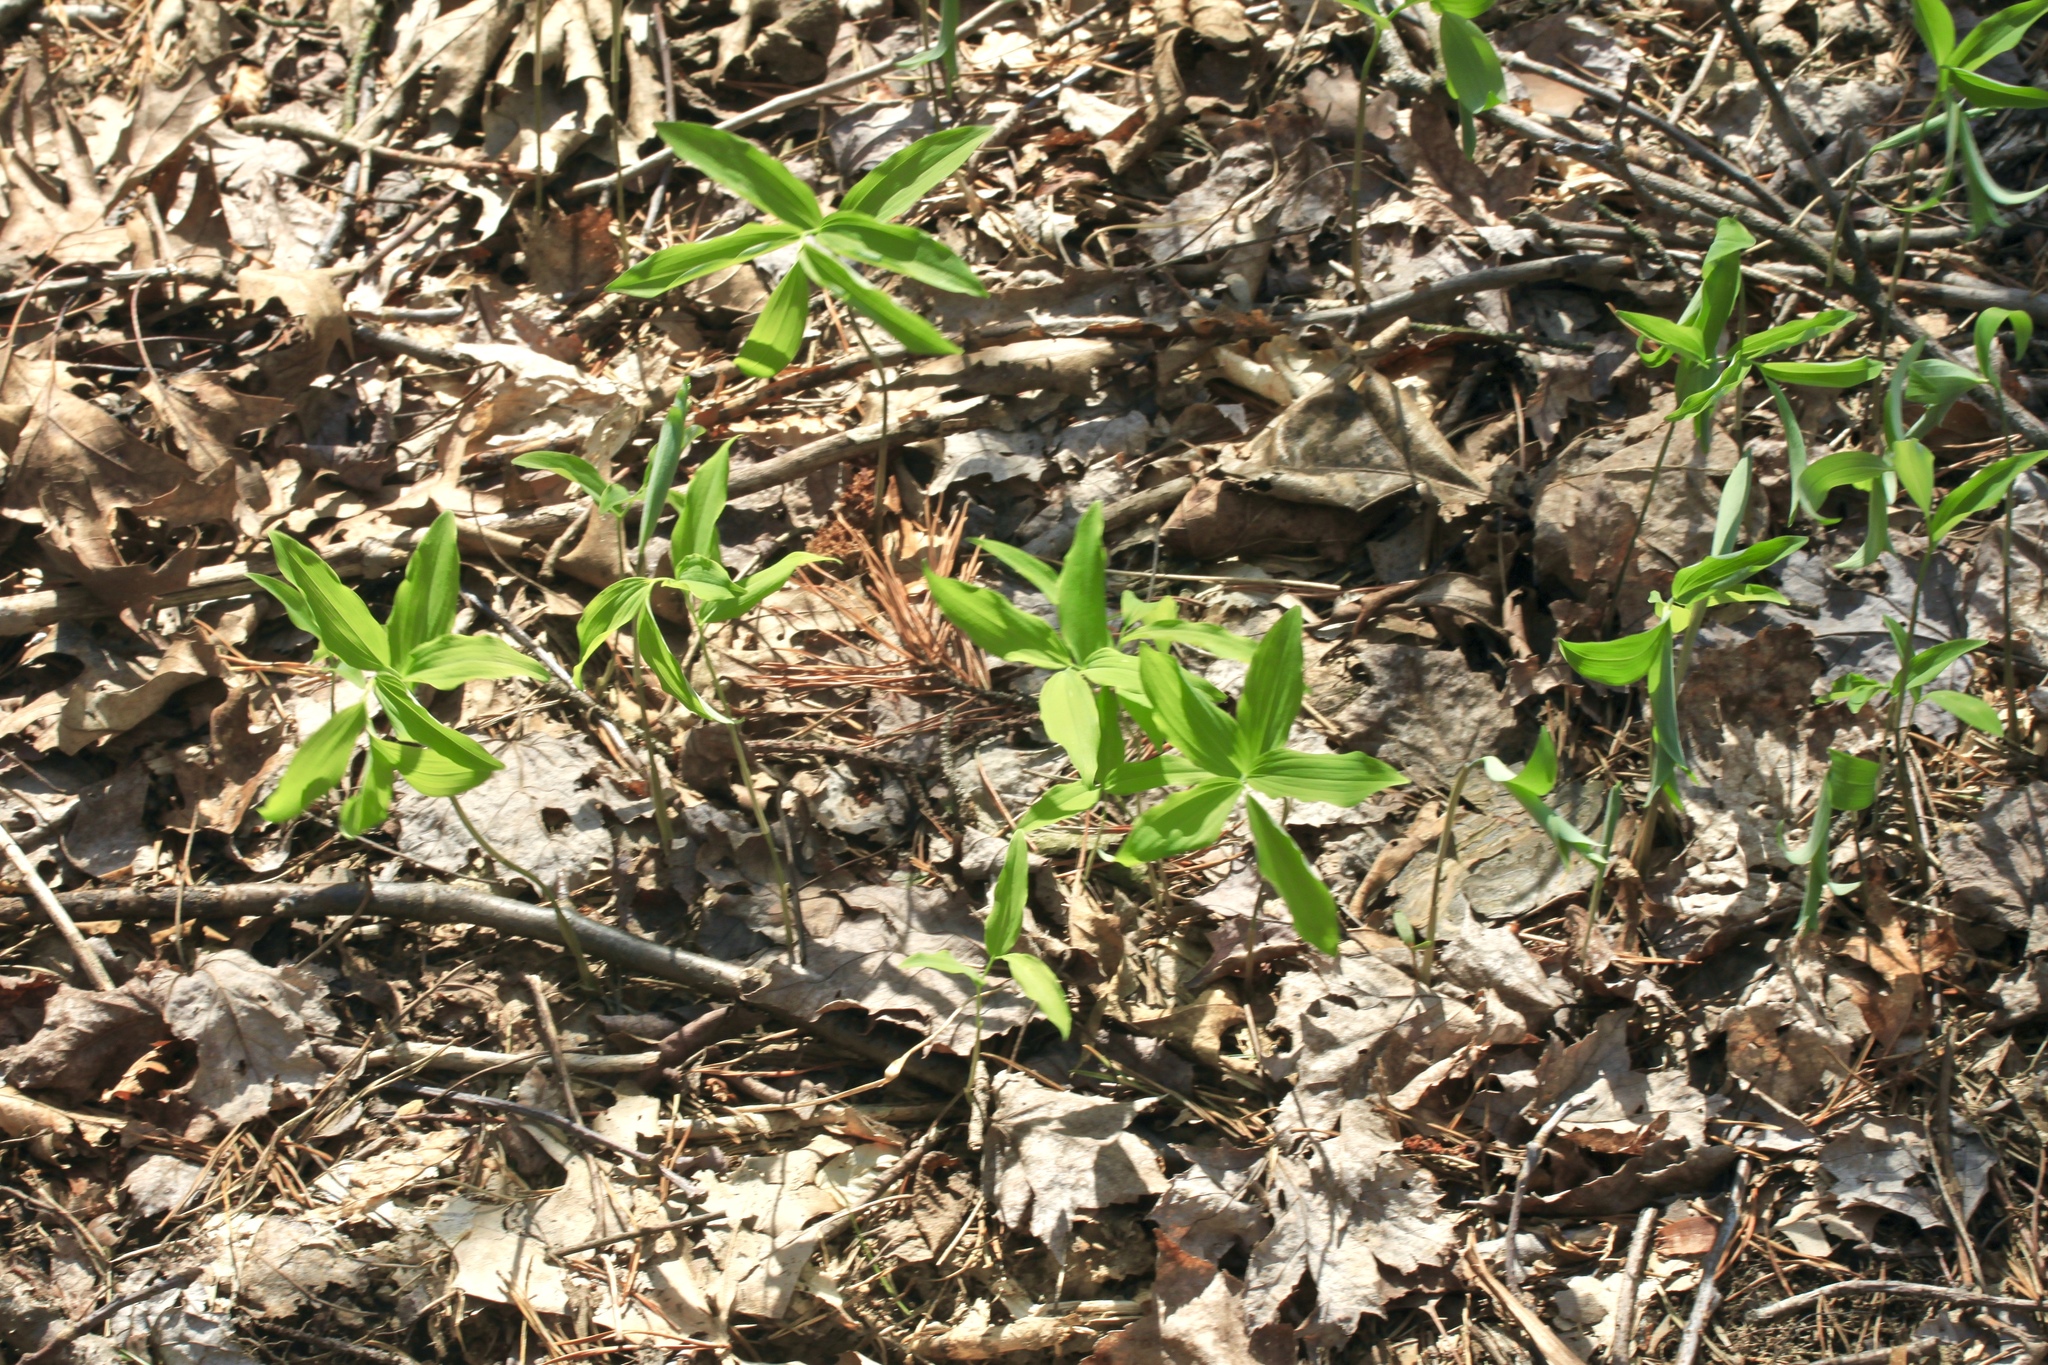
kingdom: Plantae
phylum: Tracheophyta
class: Liliopsida
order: Asparagales
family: Asparagaceae
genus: Polygonatum
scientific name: Polygonatum pubescens
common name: Downy solomon's seal
